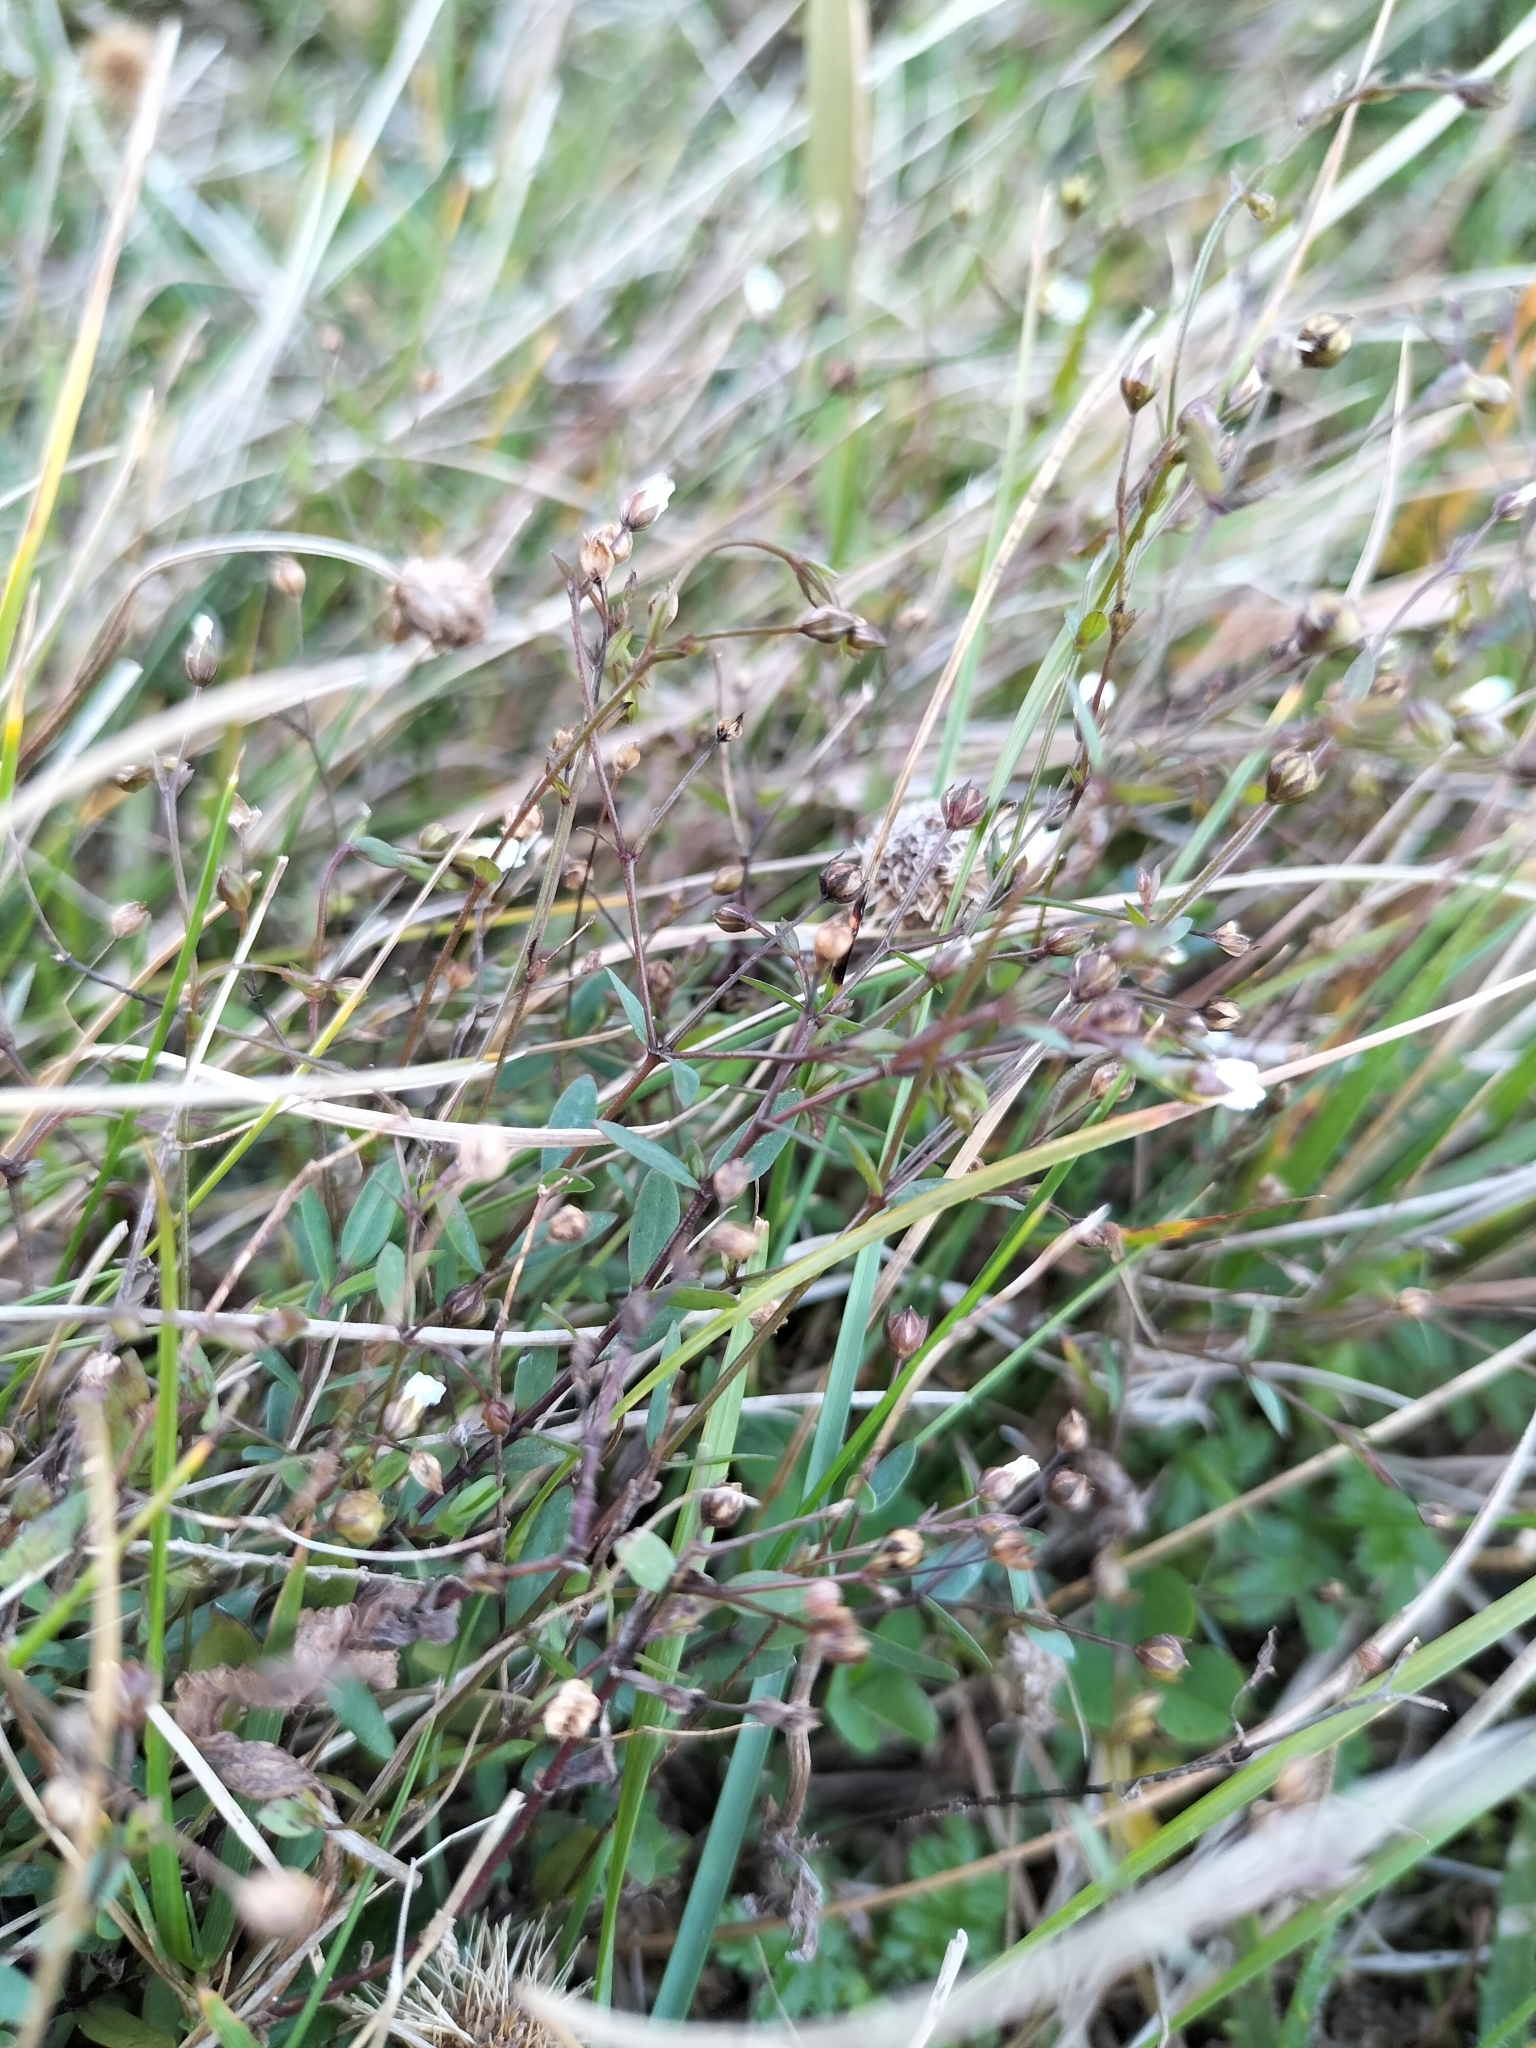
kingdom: Plantae
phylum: Tracheophyta
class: Magnoliopsida
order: Malpighiales
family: Linaceae
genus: Linum
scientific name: Linum catharticum
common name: Fairy flax
